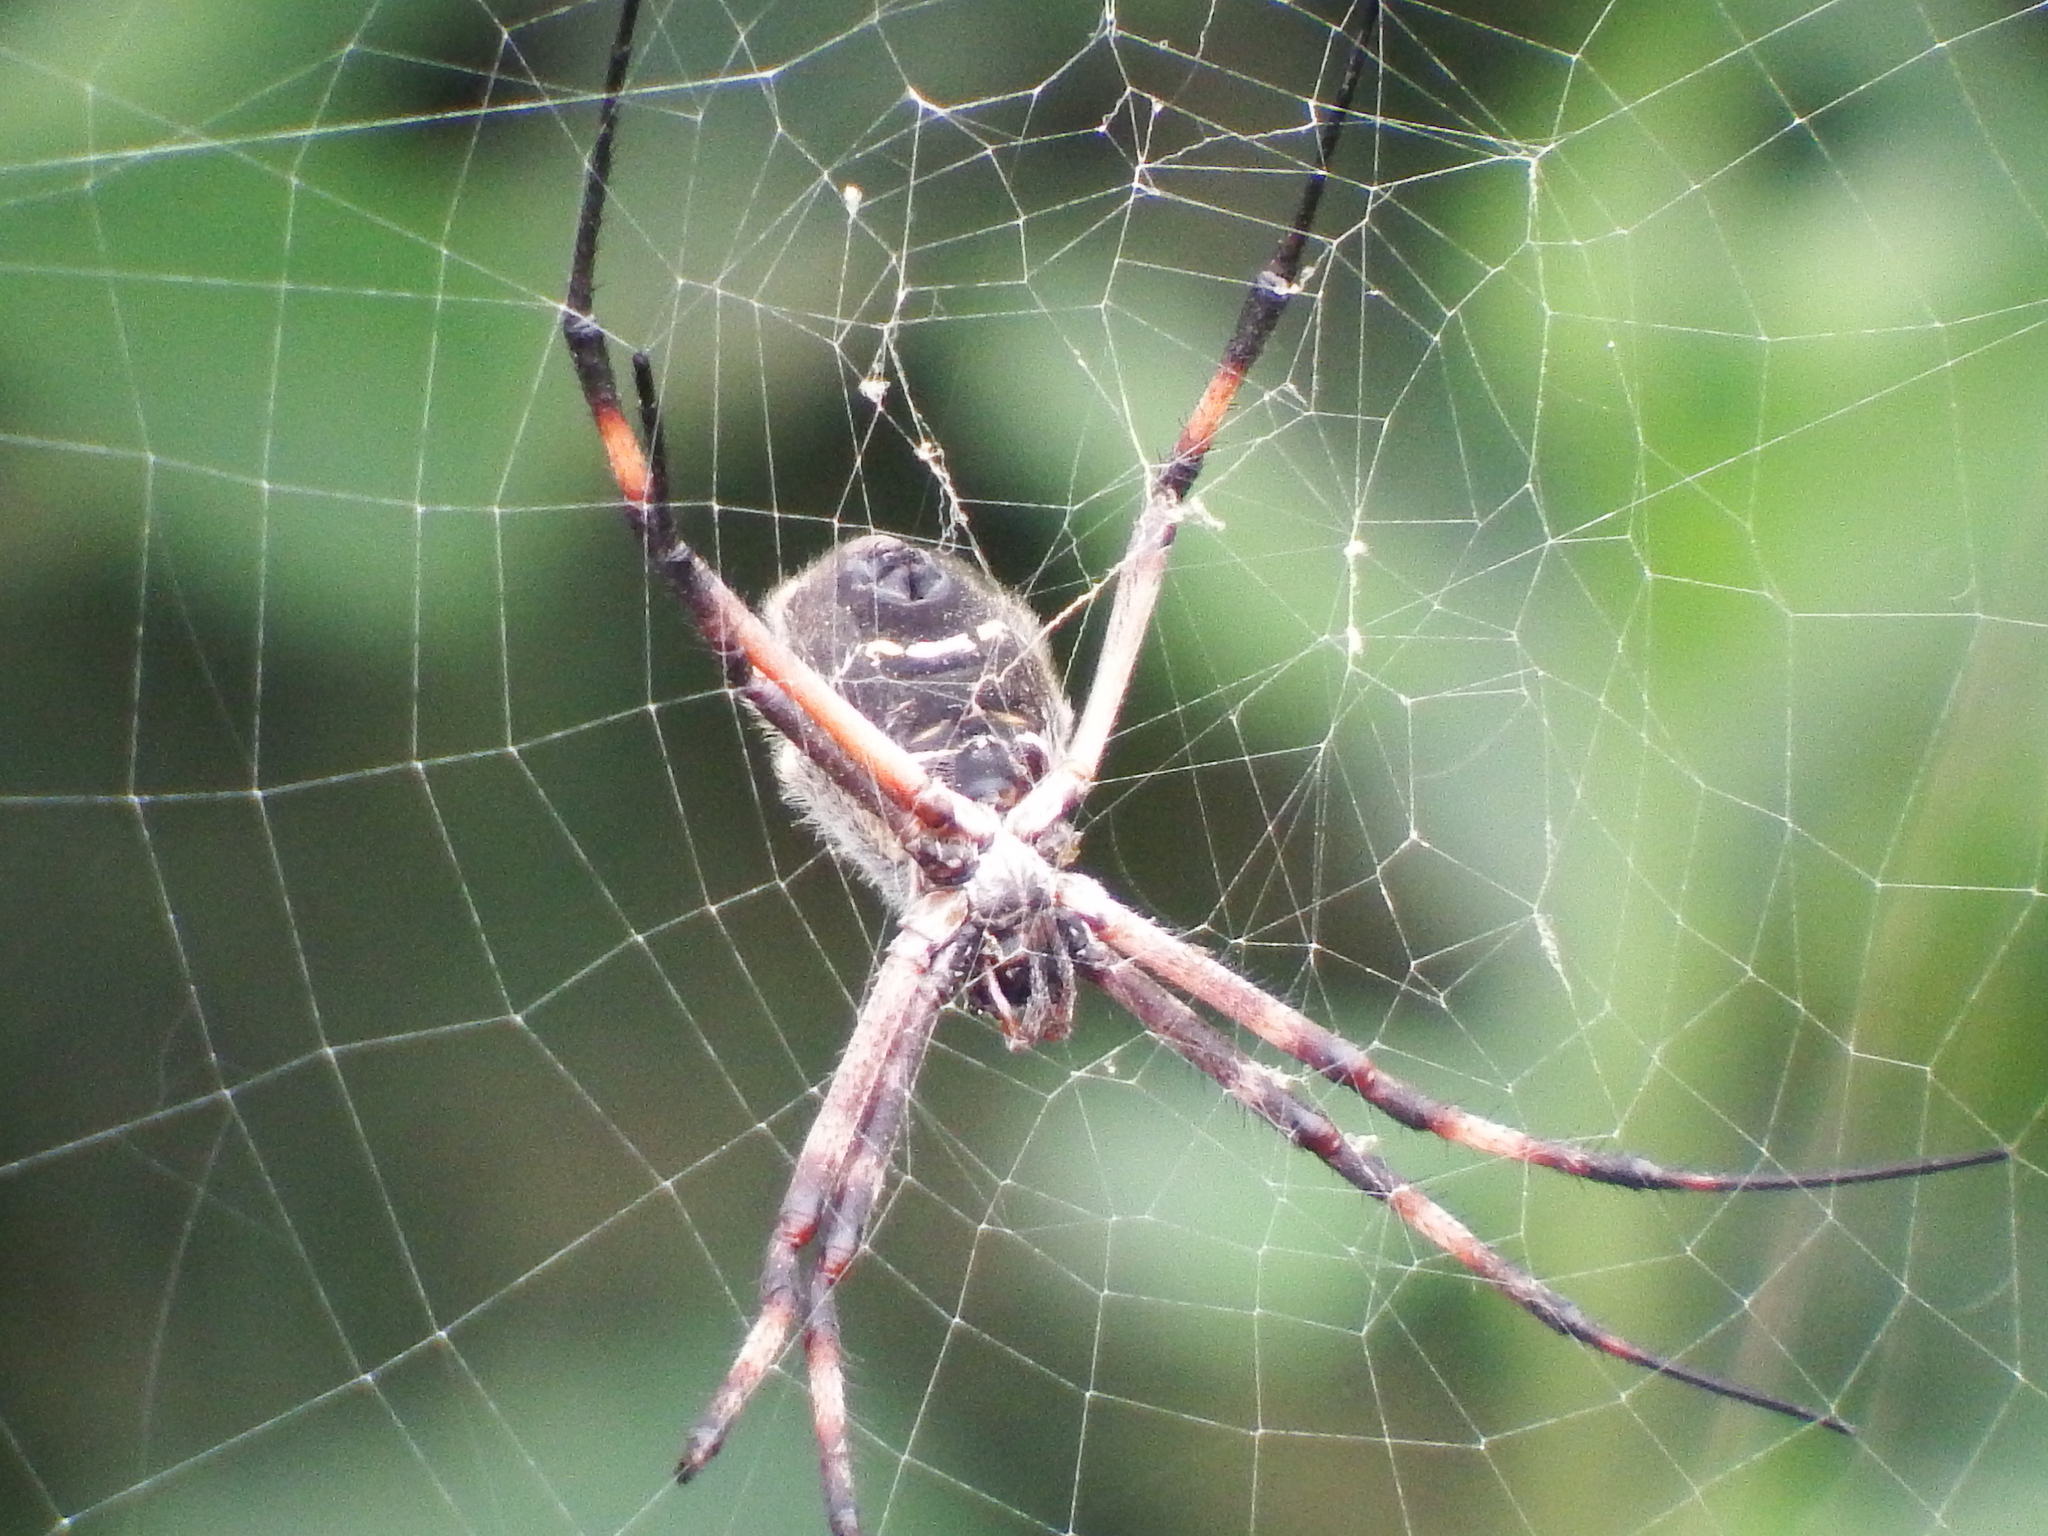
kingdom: Animalia
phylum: Arthropoda
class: Arachnida
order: Araneae
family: Araneidae
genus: Argiope
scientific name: Argiope argentata
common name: Orb weavers
